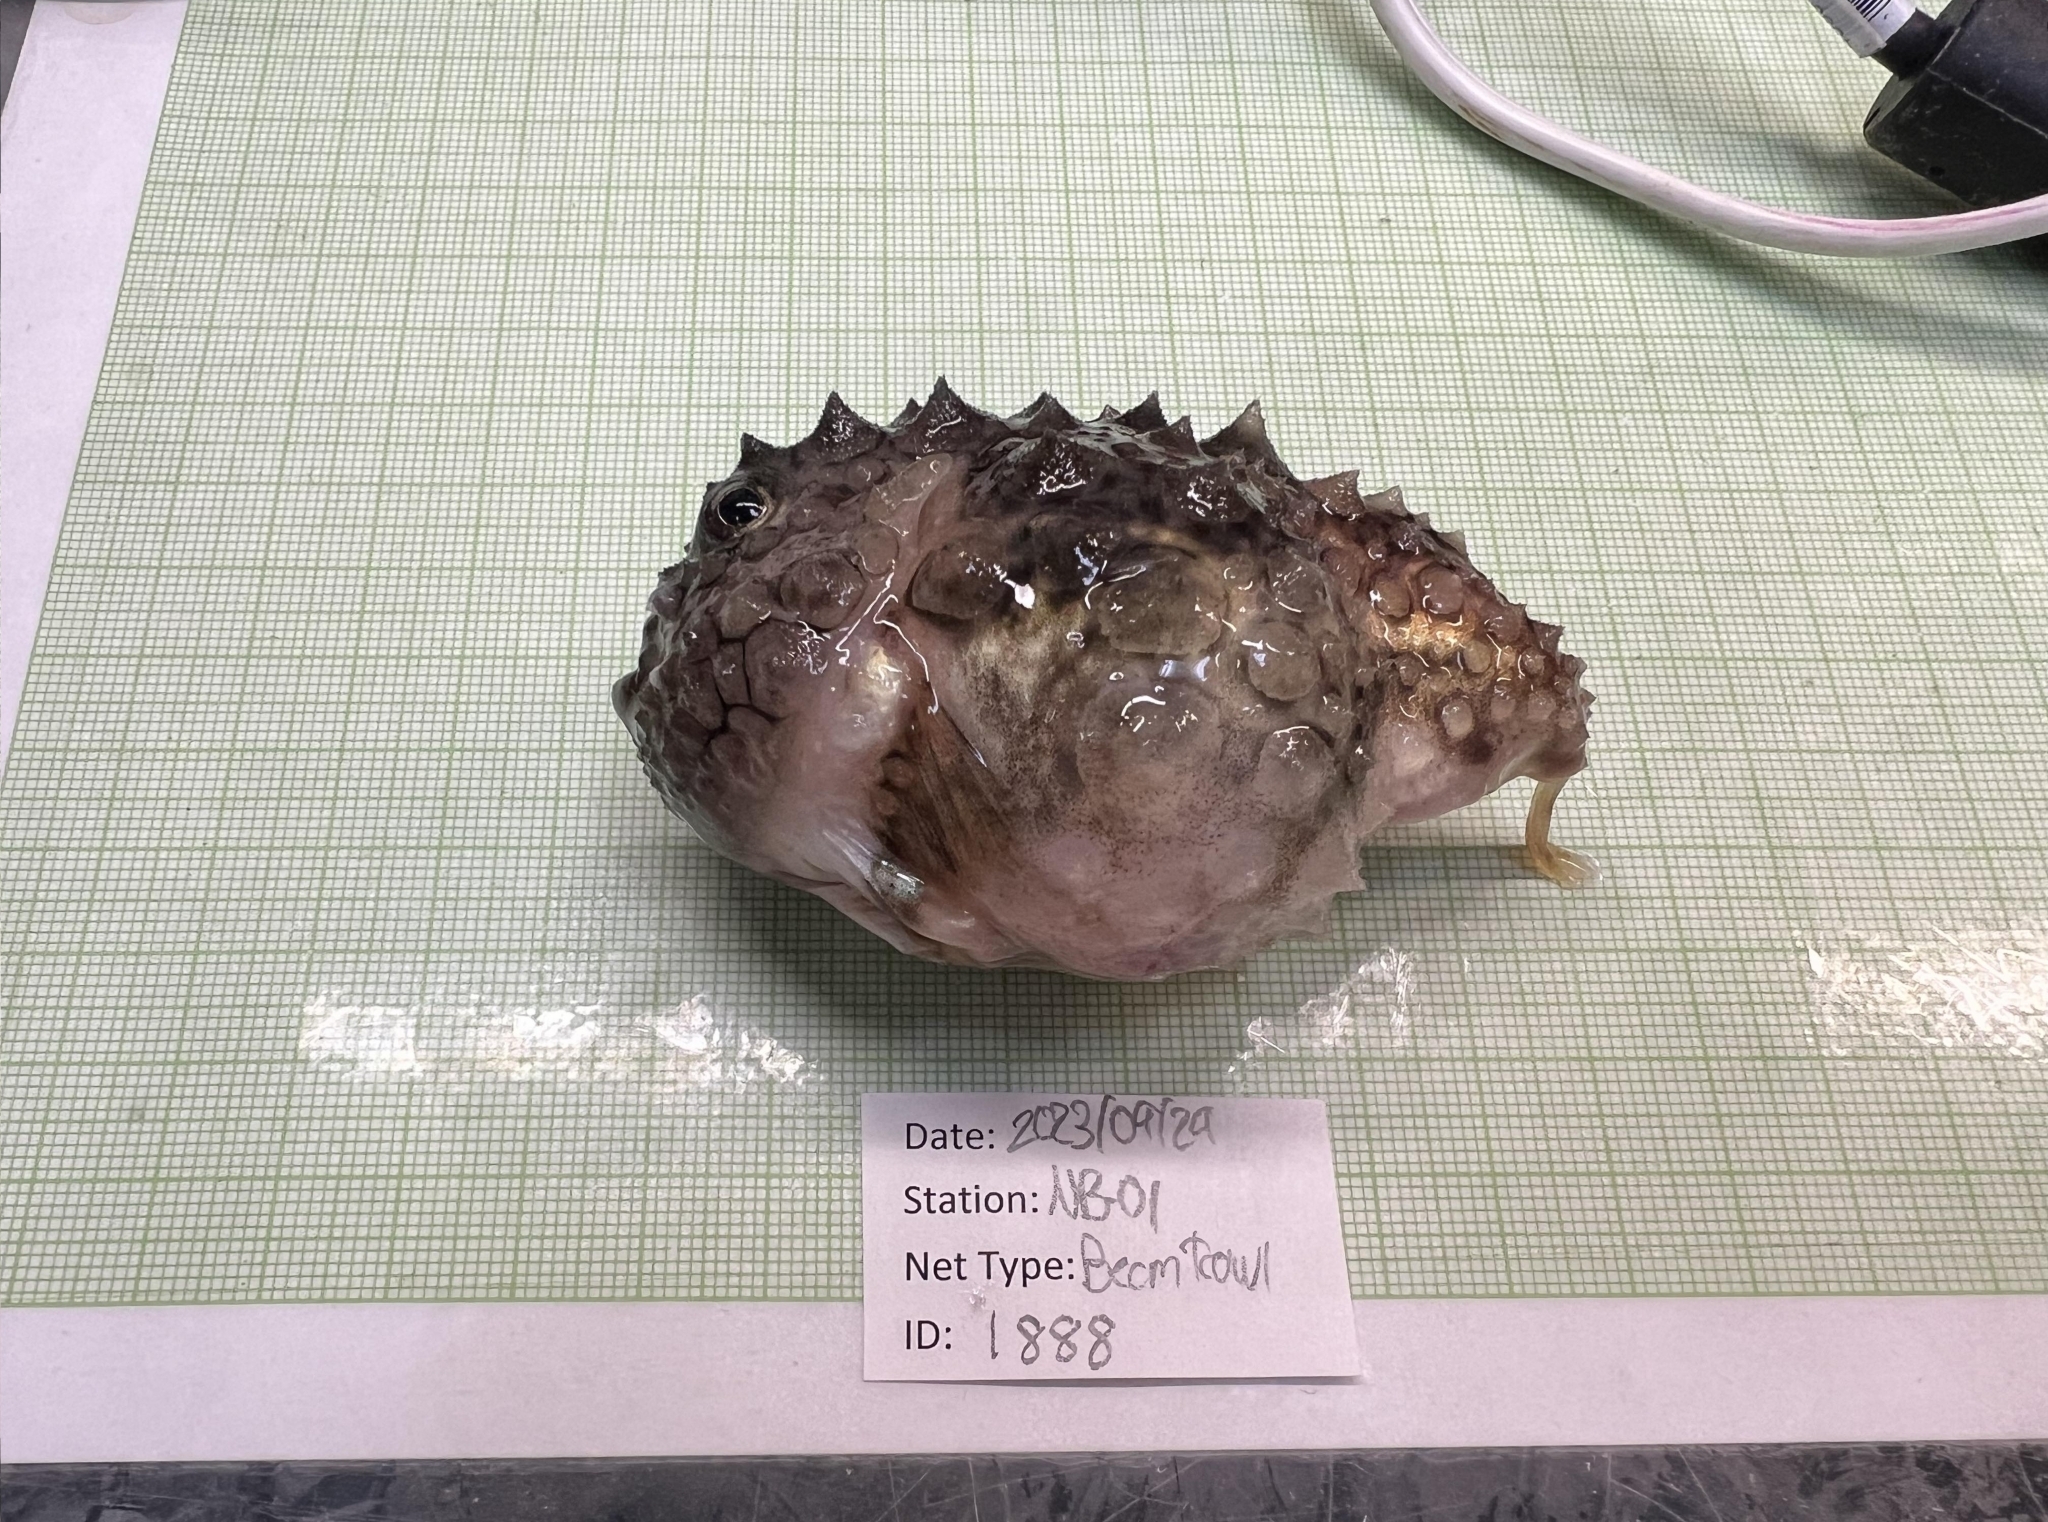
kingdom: Animalia
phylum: Chordata
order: Scorpaeniformes
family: Cyclopteridae
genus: Eumicrotremus
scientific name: Eumicrotremus spinosus
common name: Atlantic spiny lumpsucker
